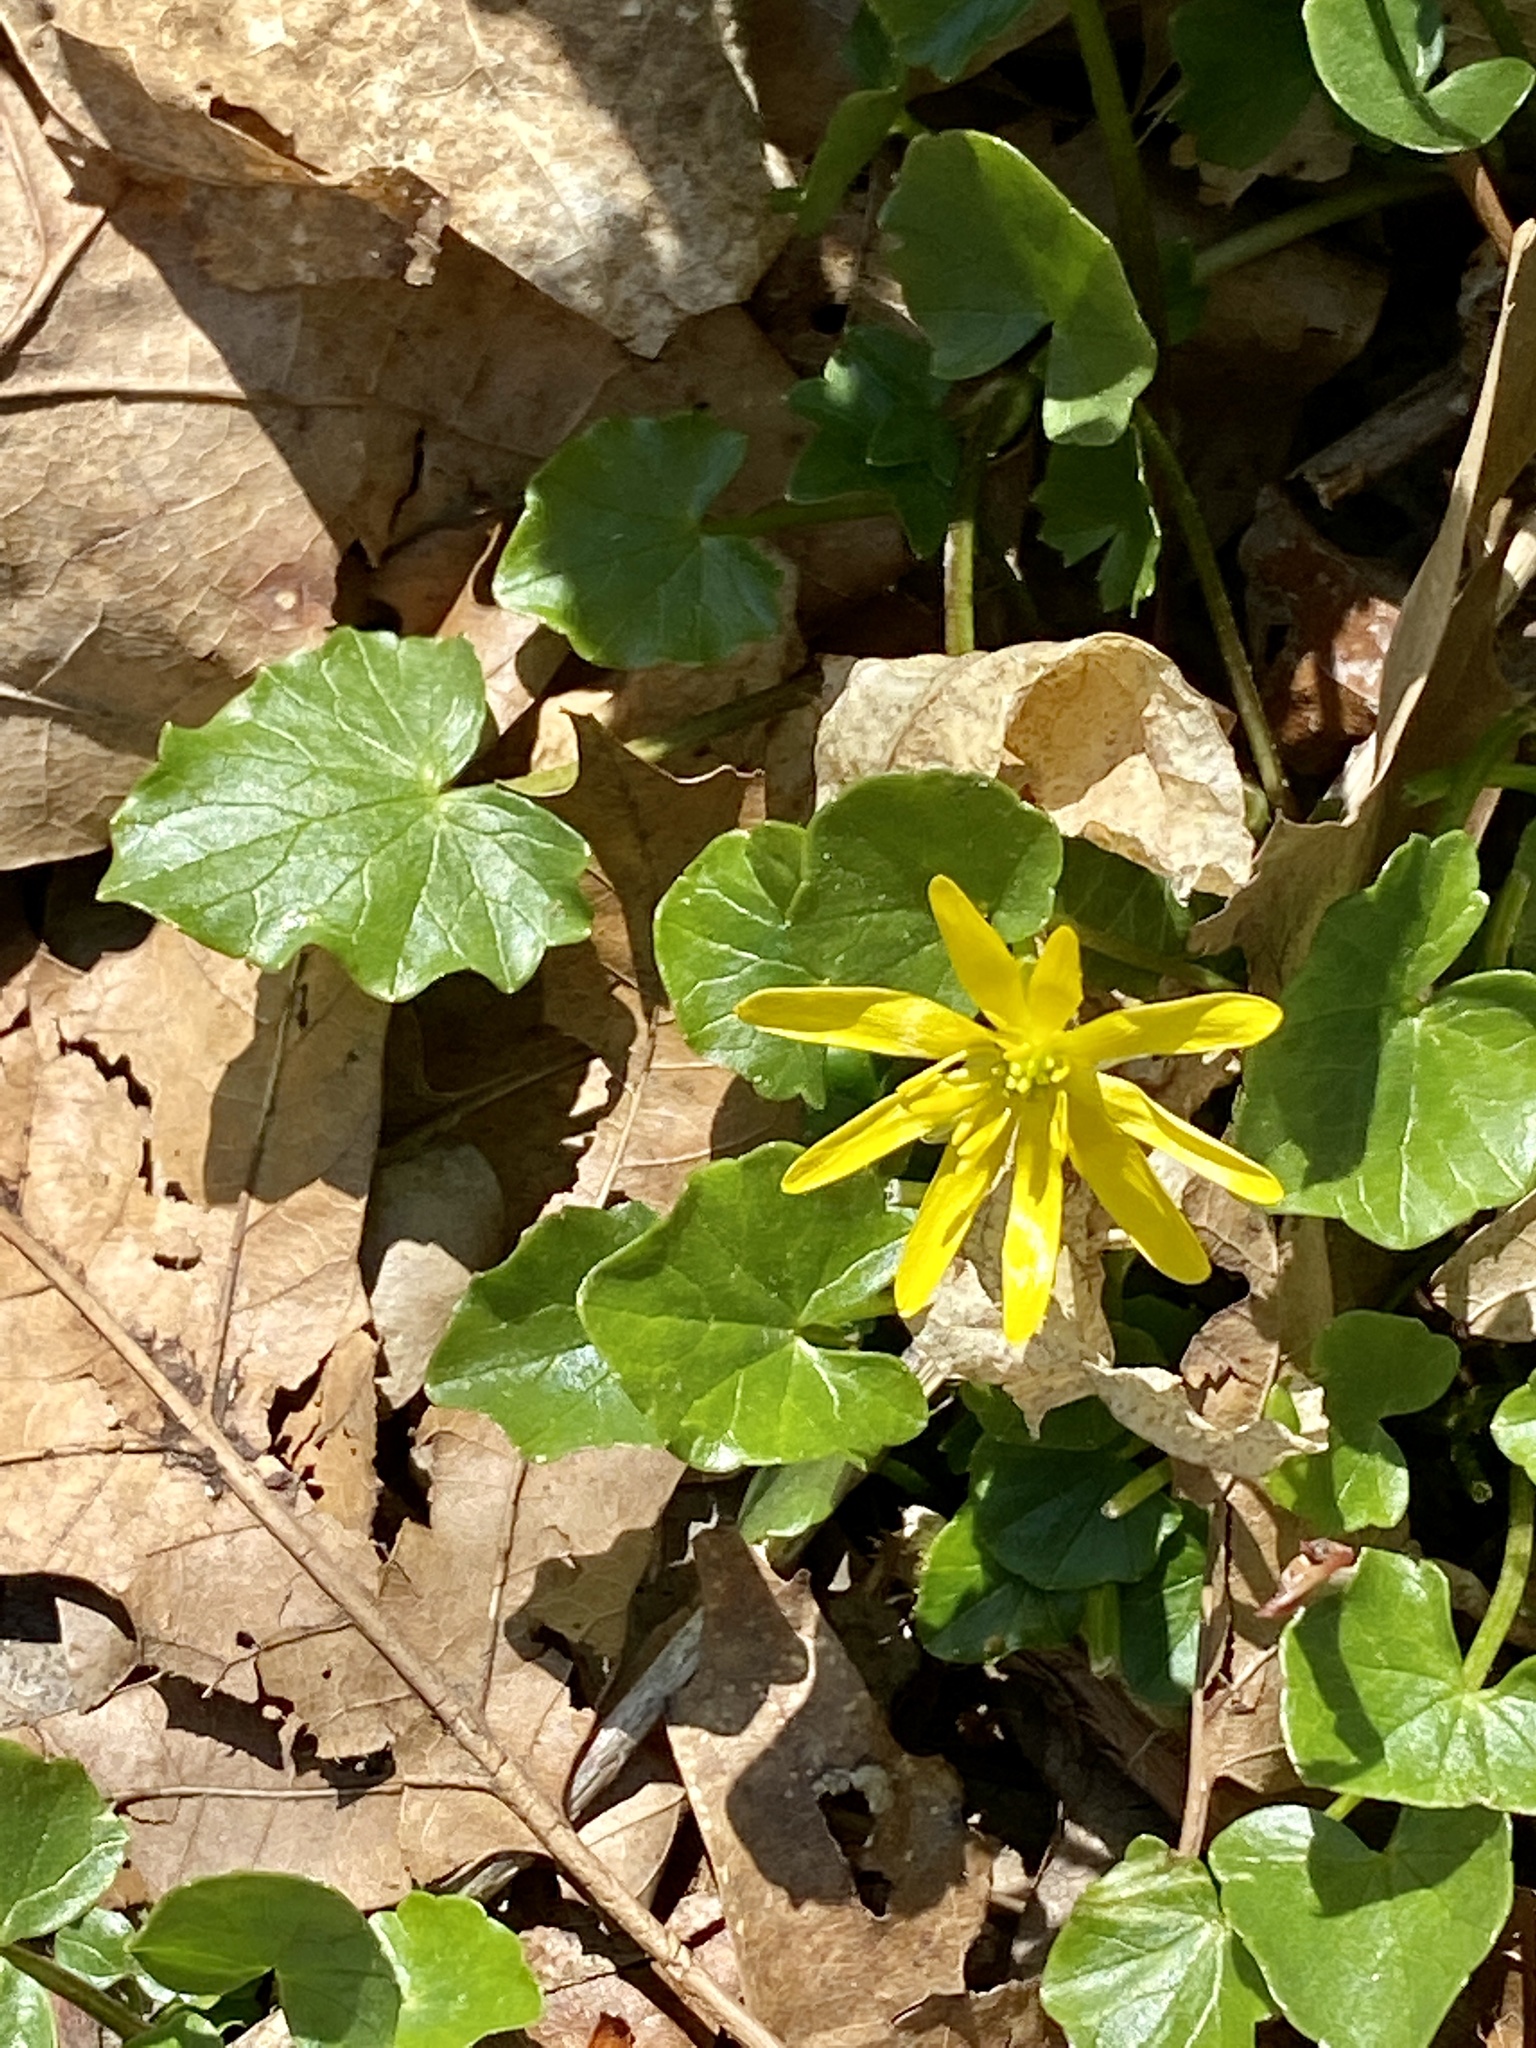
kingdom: Plantae
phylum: Tracheophyta
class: Magnoliopsida
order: Ranunculales
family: Ranunculaceae
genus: Ficaria
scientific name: Ficaria verna
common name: Lesser celandine
